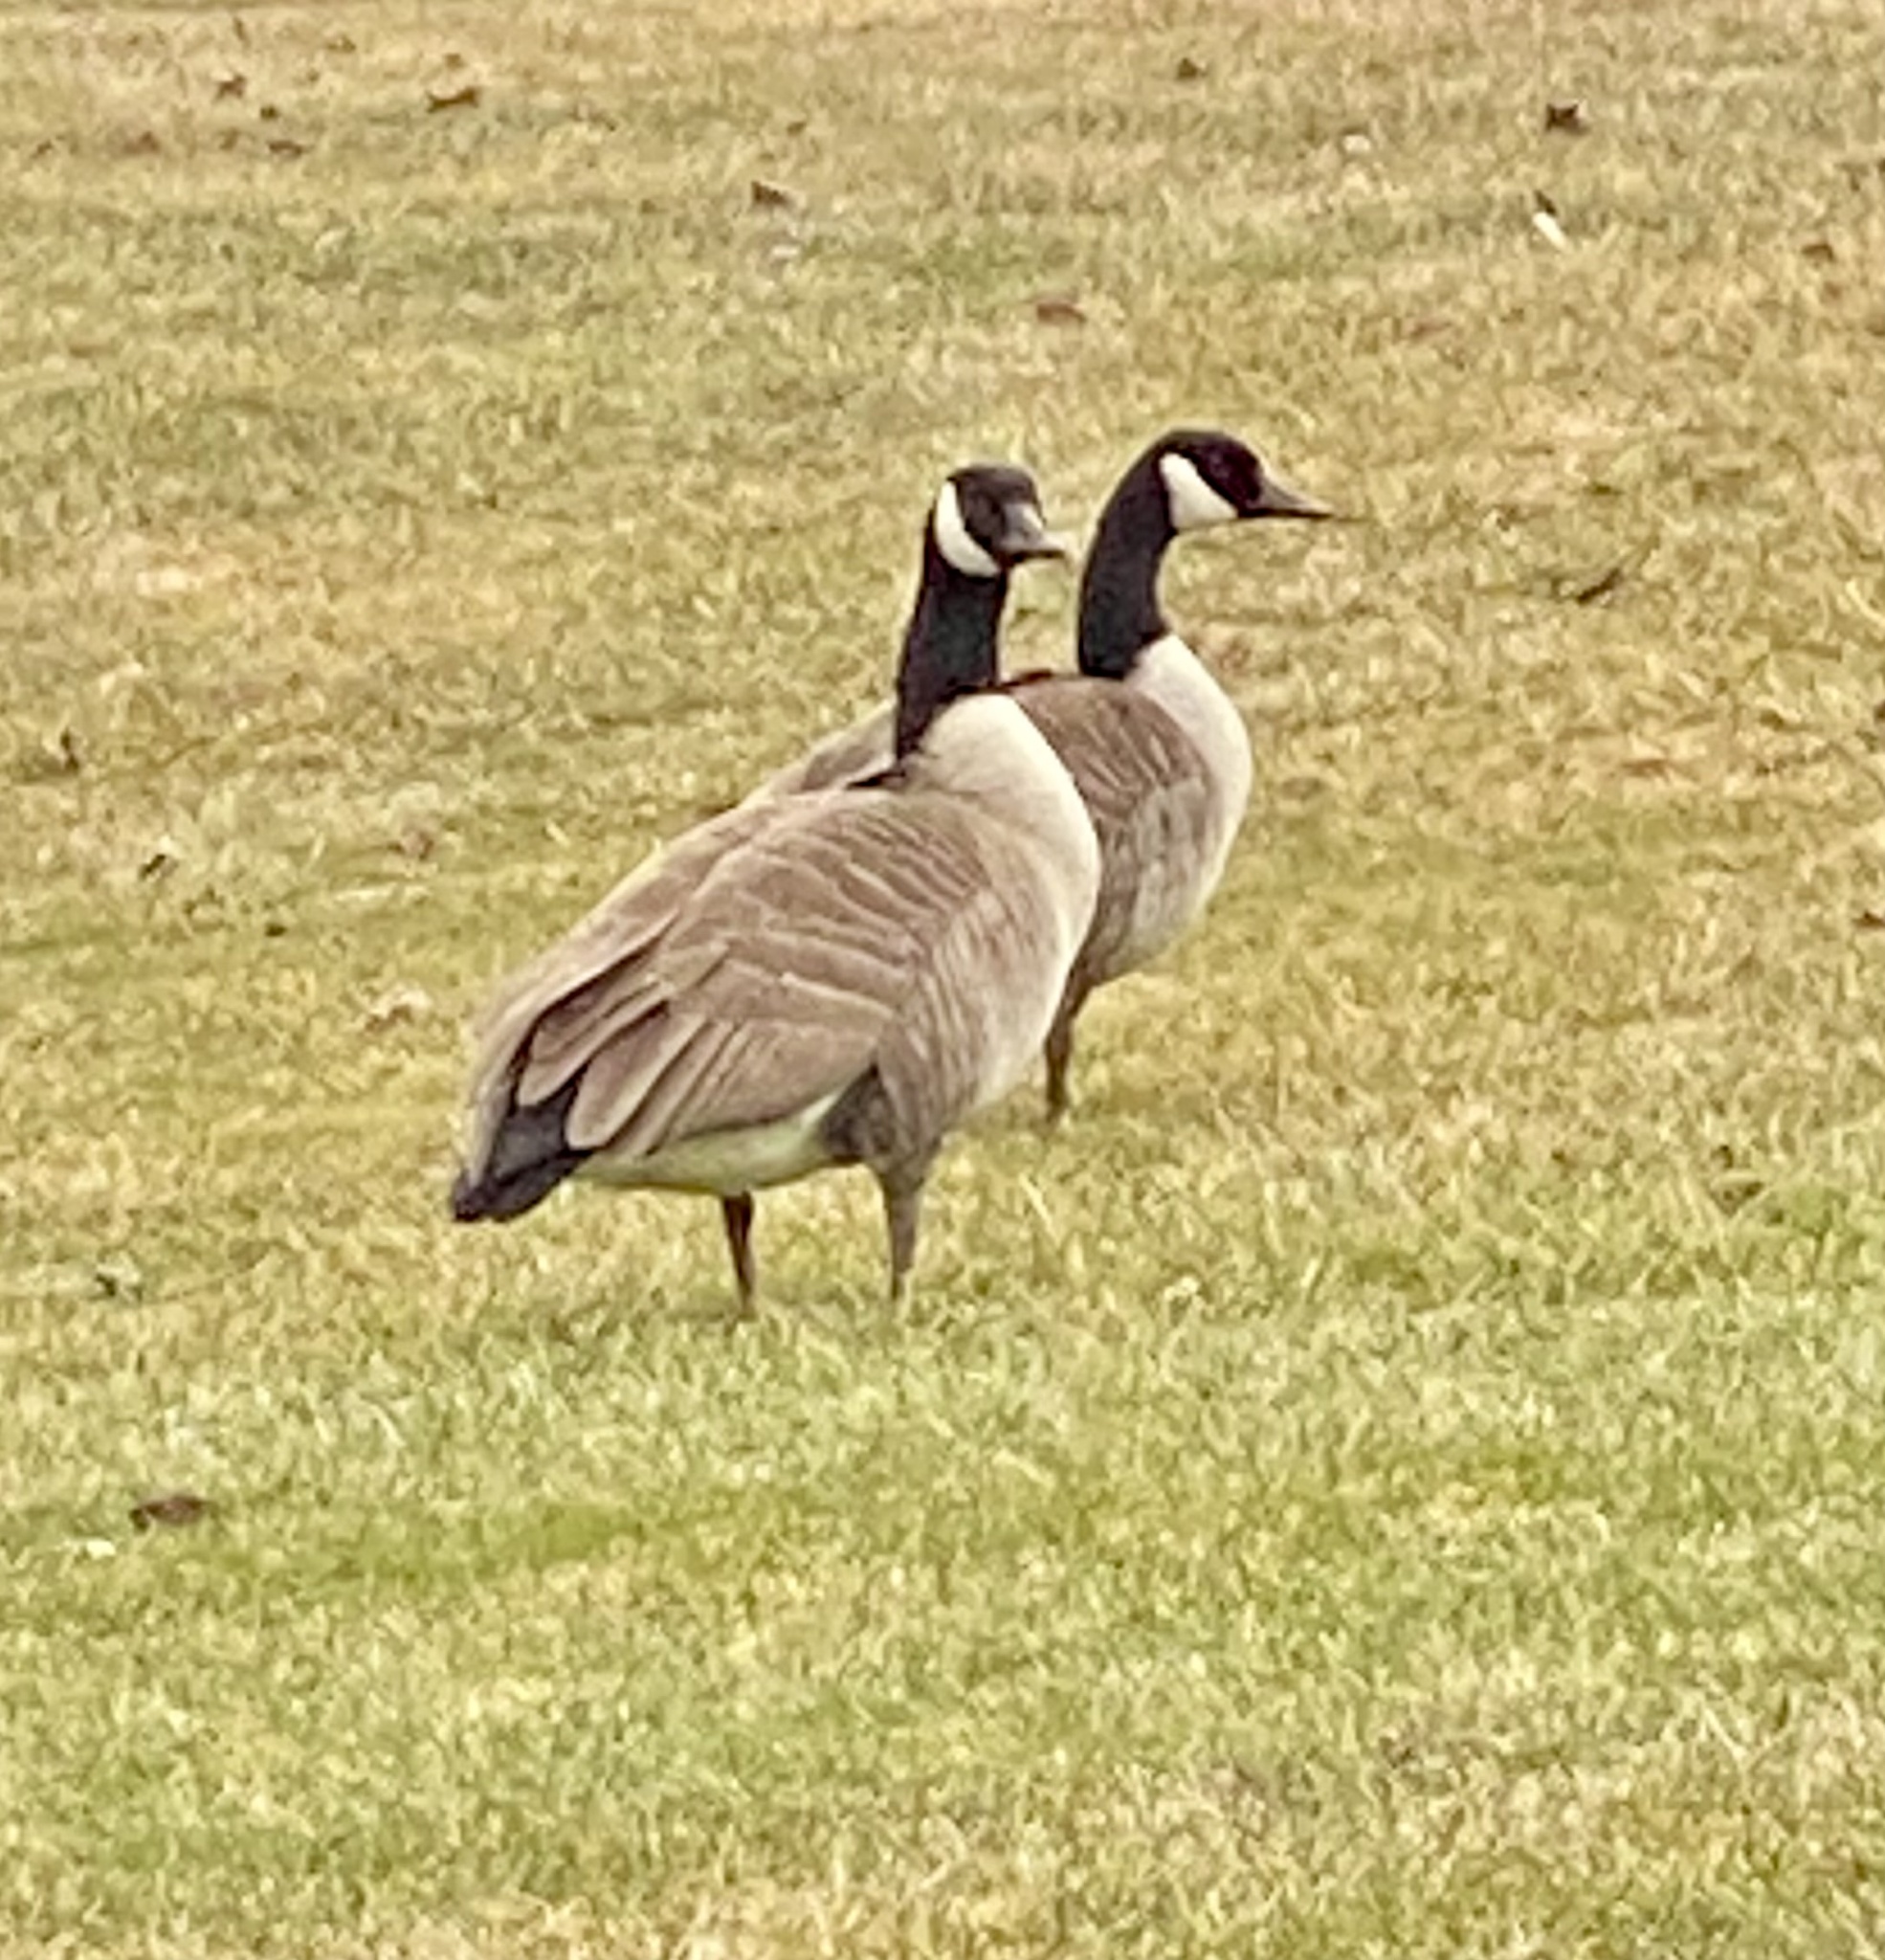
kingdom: Animalia
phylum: Chordata
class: Aves
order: Anseriformes
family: Anatidae
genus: Branta
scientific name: Branta canadensis
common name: Canada goose
